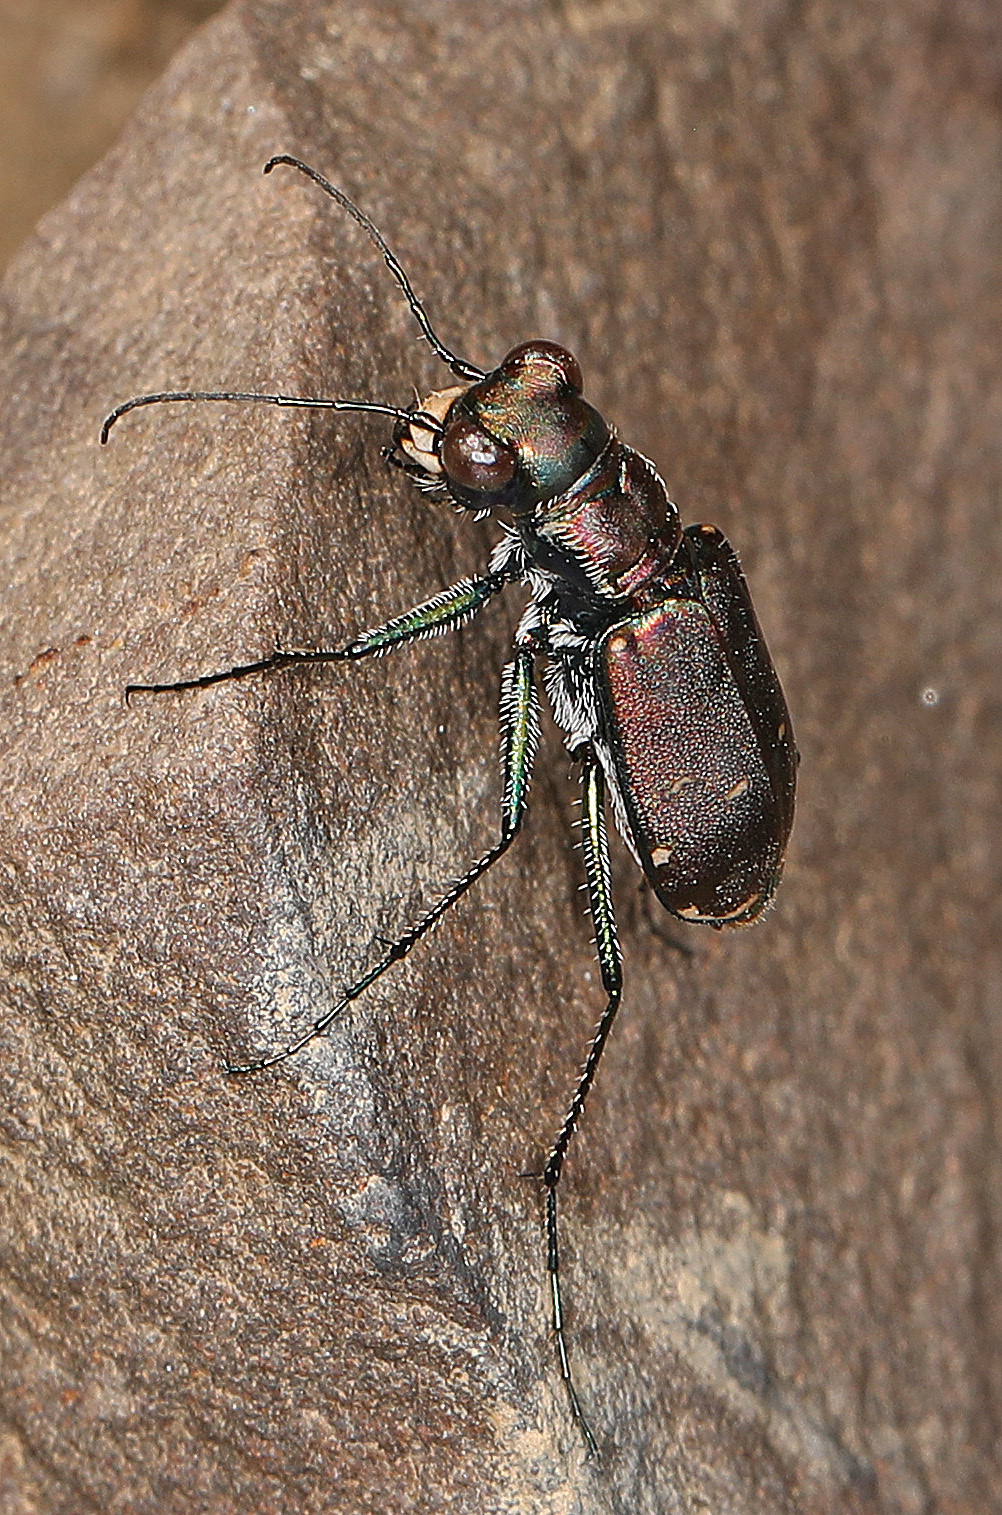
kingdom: Animalia
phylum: Arthropoda
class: Insecta
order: Coleoptera
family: Carabidae
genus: Cicindela
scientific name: Cicindela rufiventris
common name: Eastern red-bellied tiger beetle
